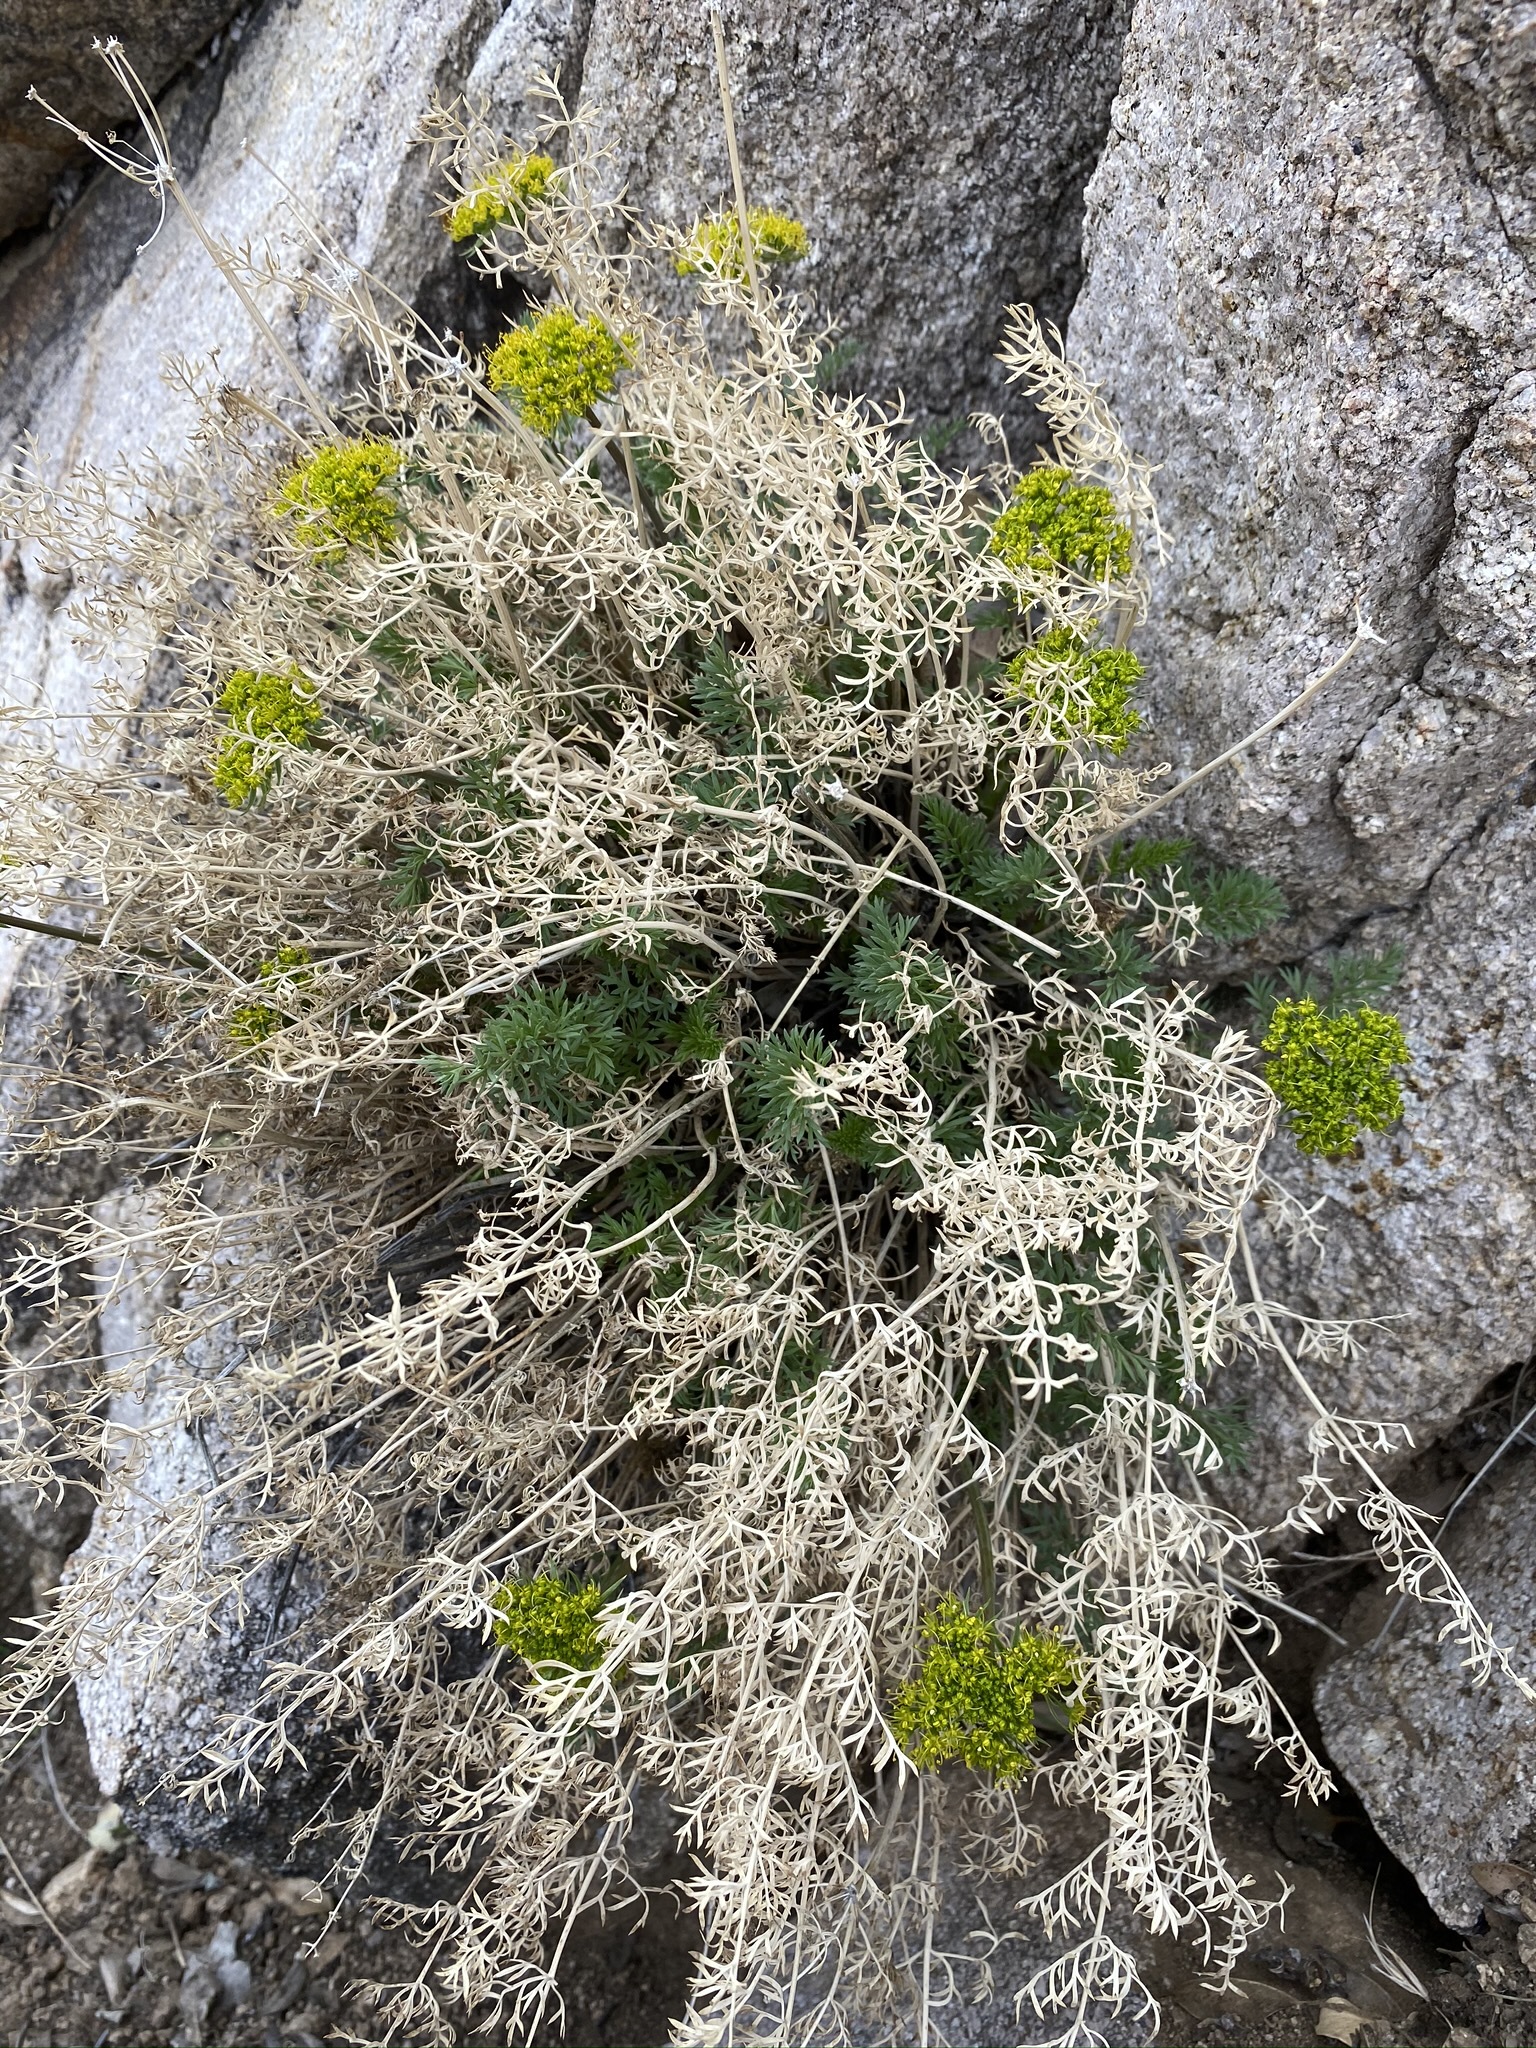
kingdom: Plantae
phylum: Tracheophyta
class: Magnoliopsida
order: Apiales
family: Apiaceae
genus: Lomatium
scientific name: Lomatium parryi
